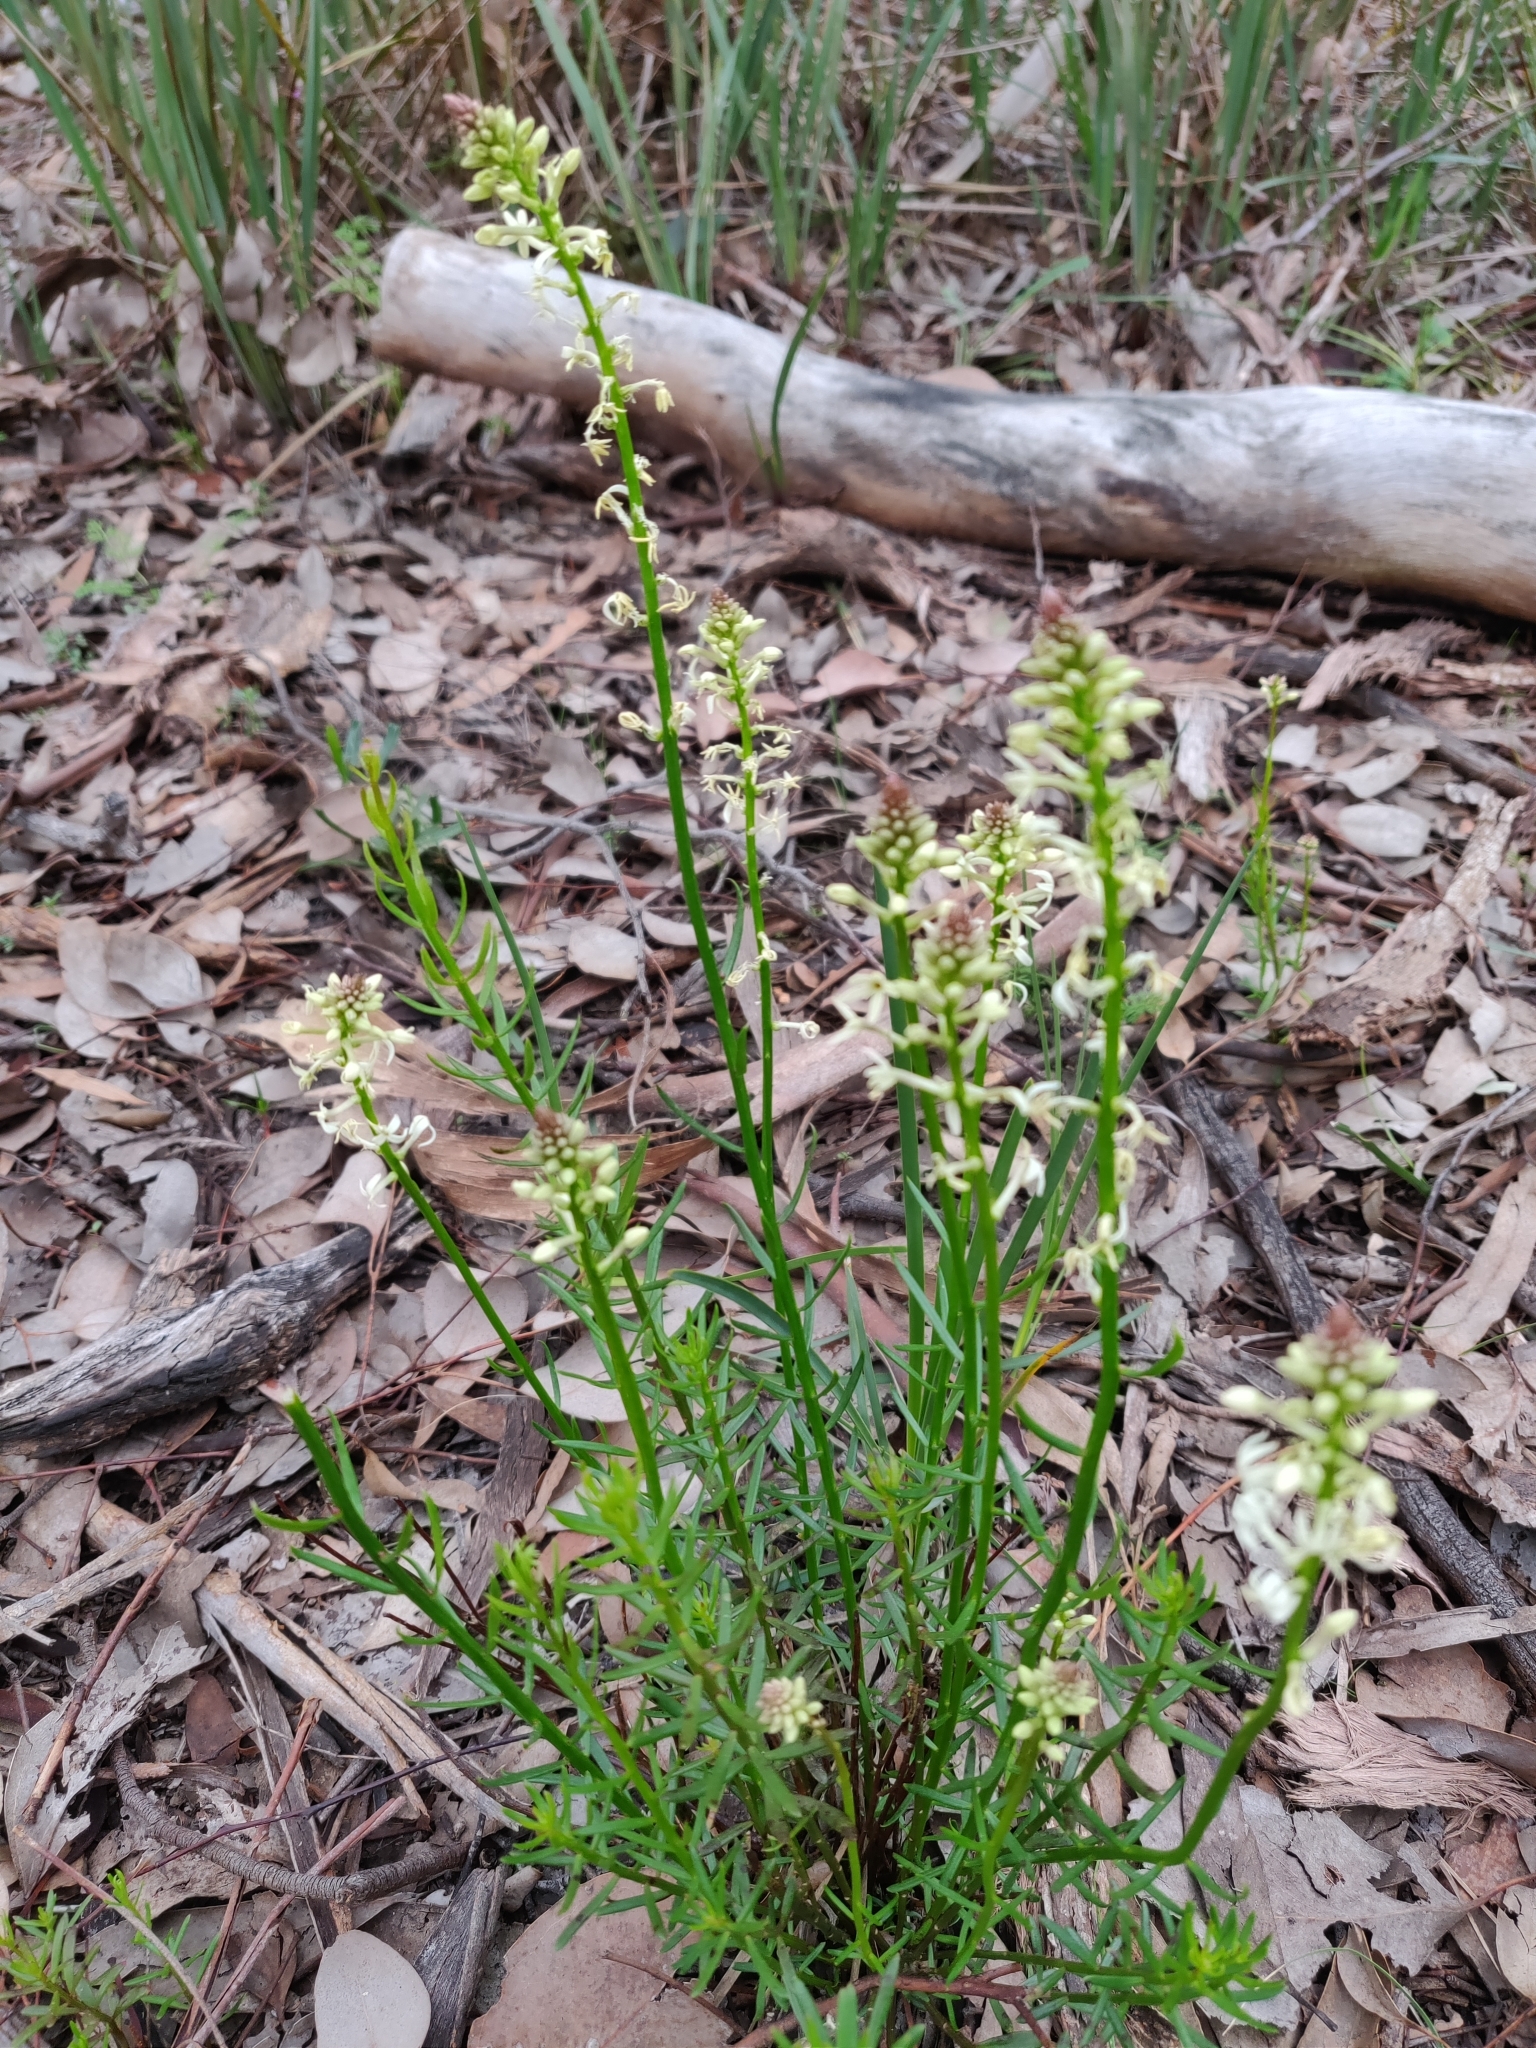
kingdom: Plantae
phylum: Tracheophyta
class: Magnoliopsida
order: Celastrales
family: Celastraceae
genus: Stackhousia
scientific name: Stackhousia monogyna
